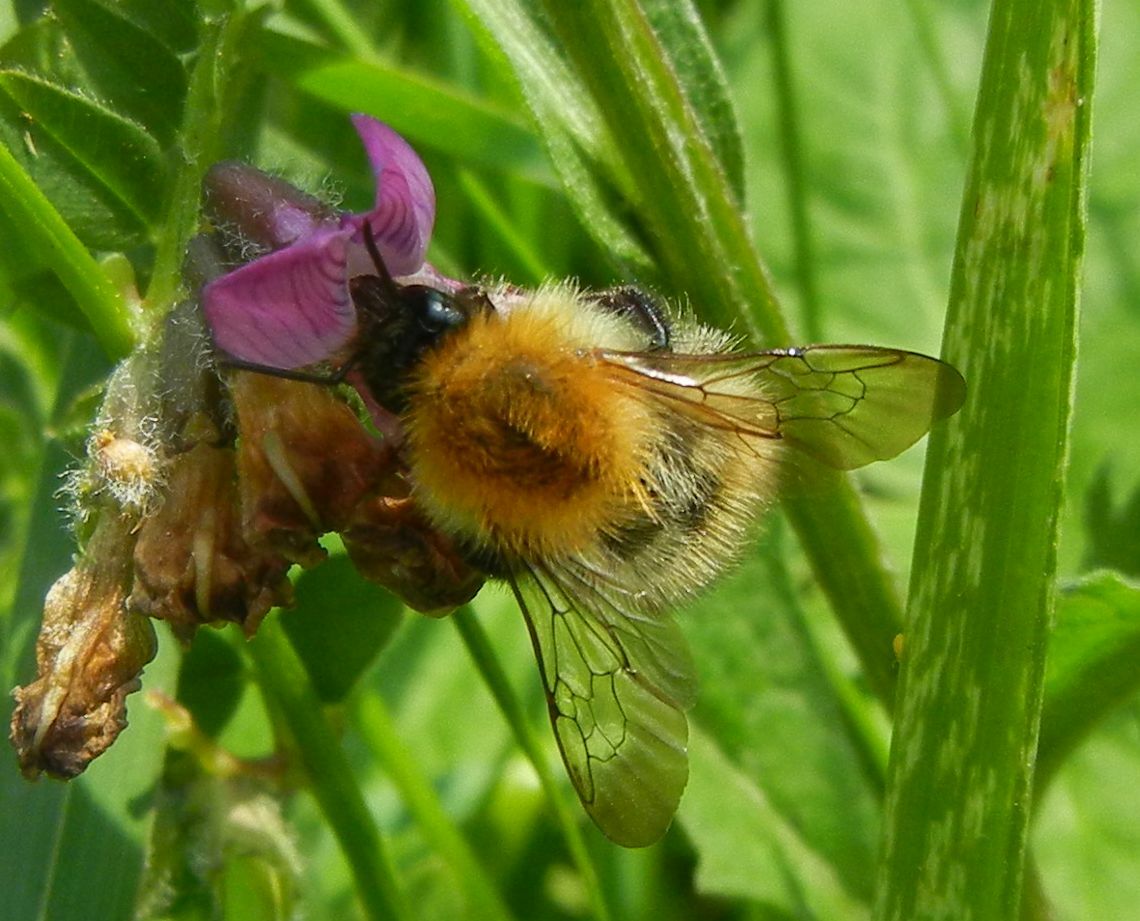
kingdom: Animalia
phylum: Arthropoda
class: Insecta
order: Hymenoptera
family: Apidae
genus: Bombus
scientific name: Bombus pascuorum
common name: Common carder bee
